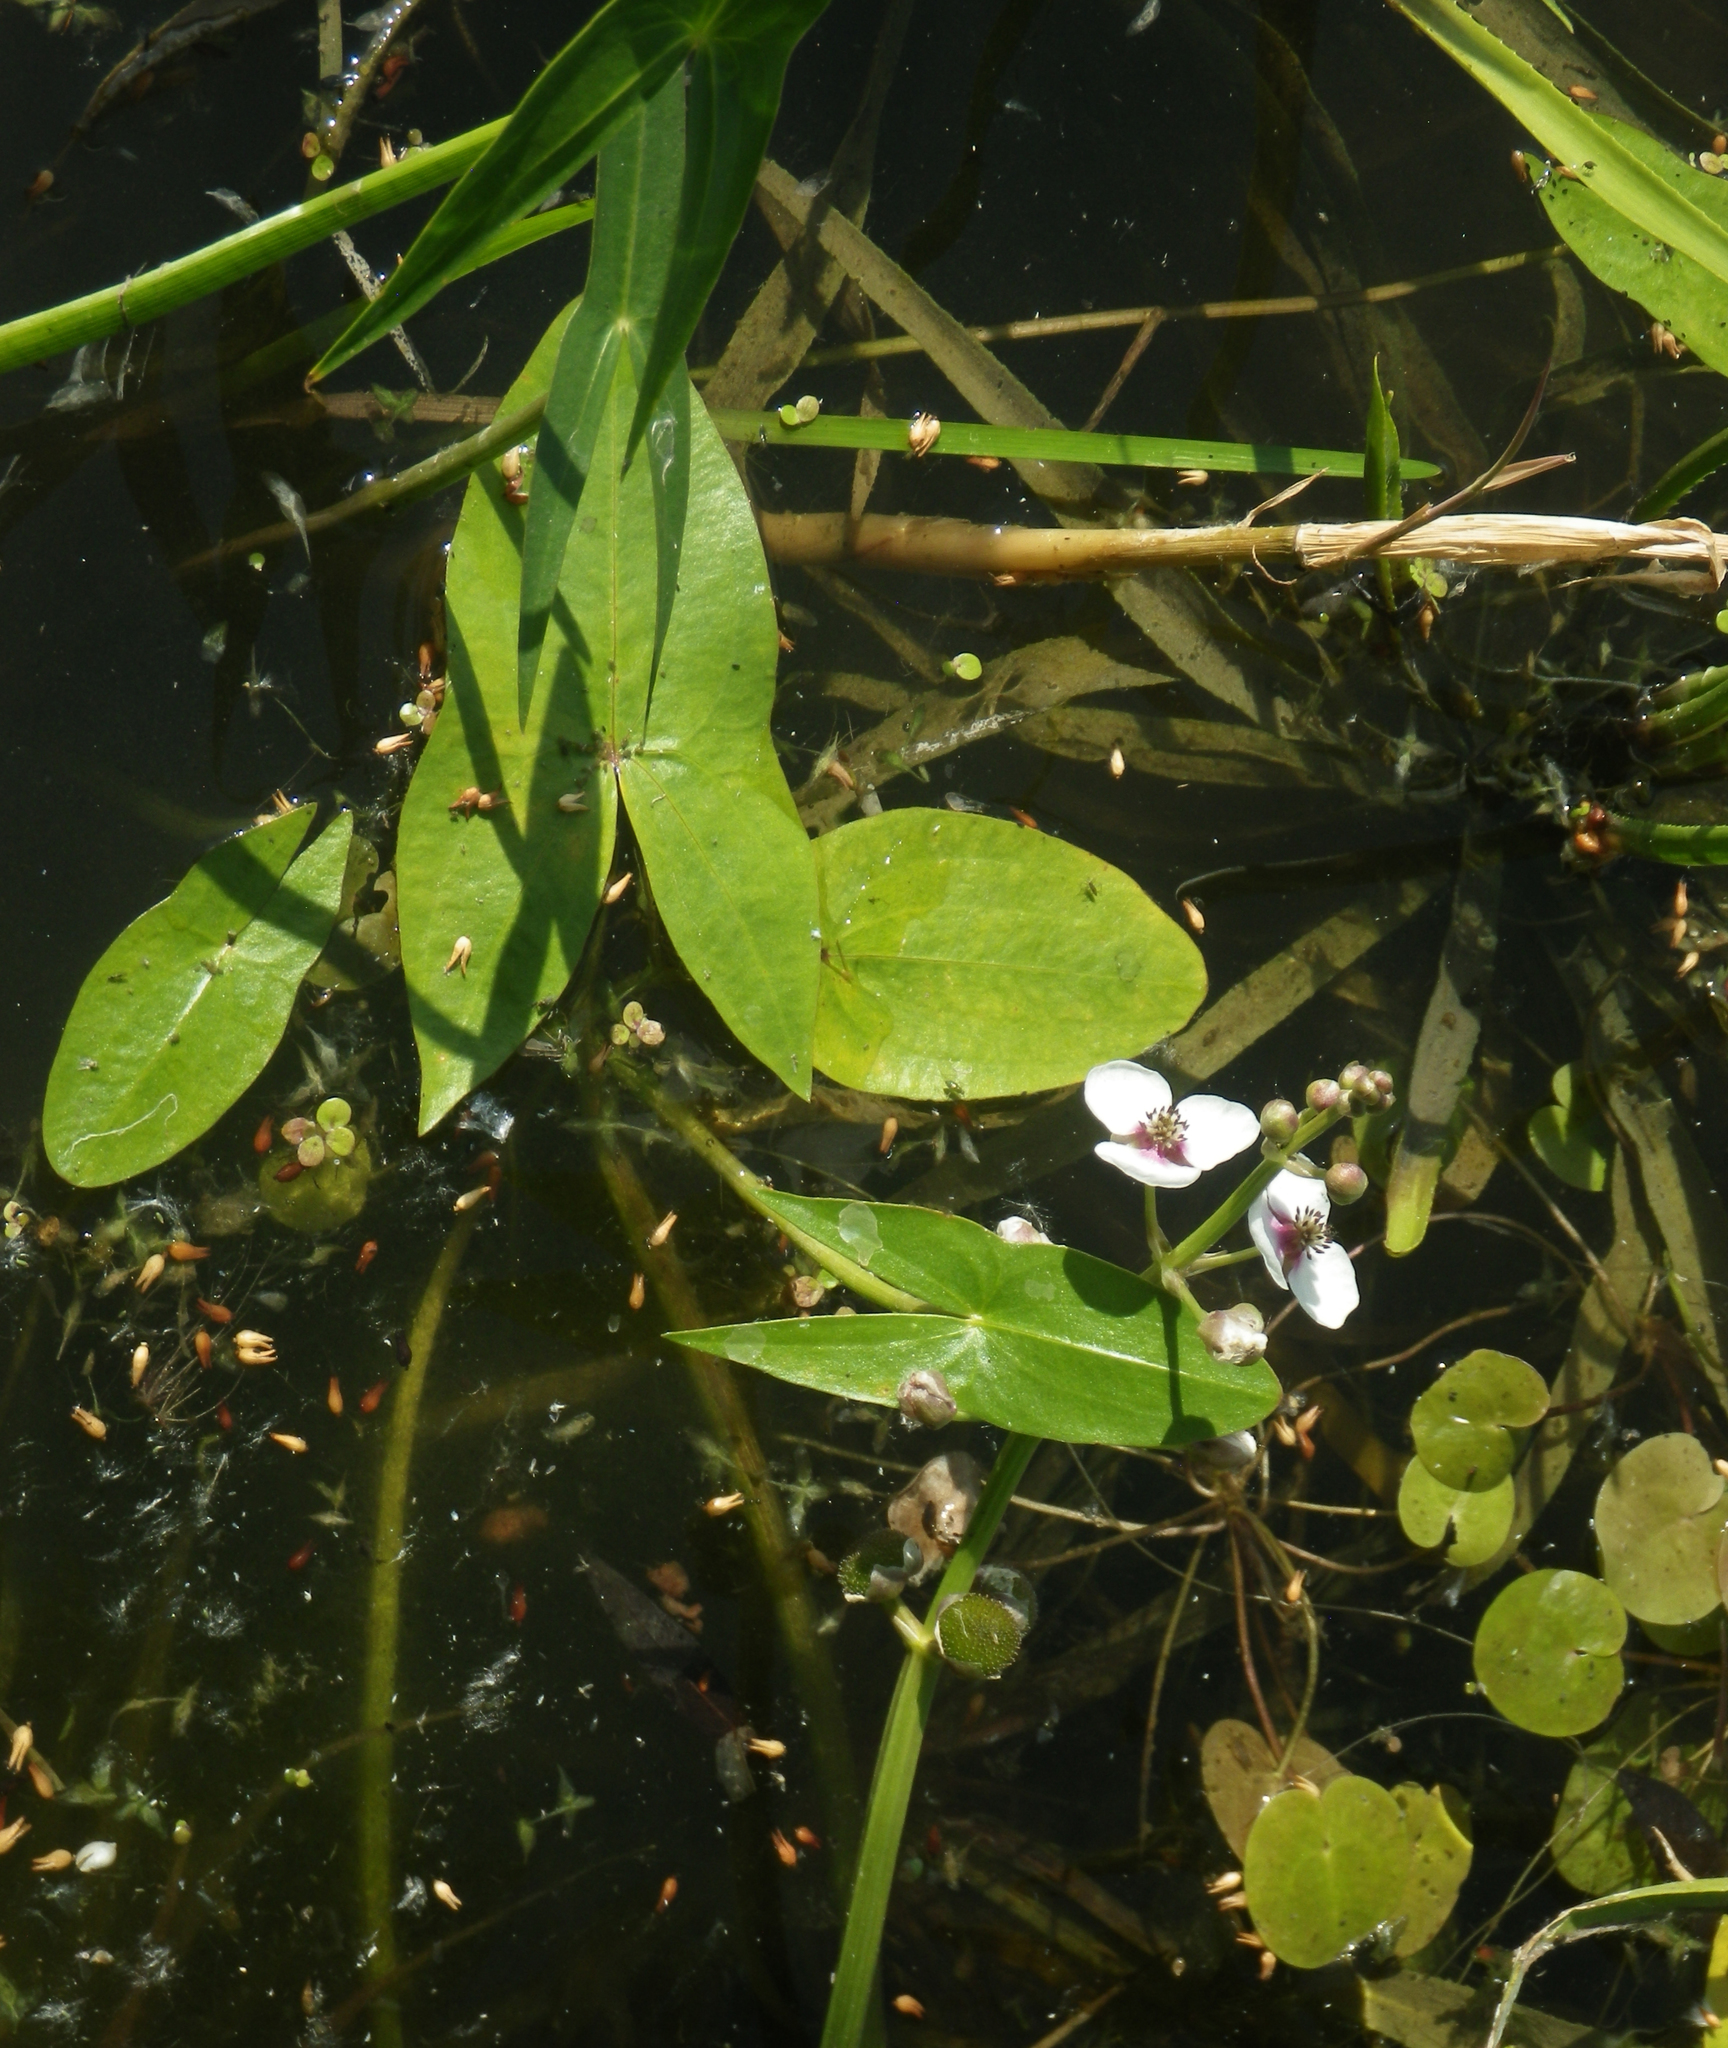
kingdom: Plantae
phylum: Tracheophyta
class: Liliopsida
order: Alismatales
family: Alismataceae
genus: Sagittaria
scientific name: Sagittaria sagittifolia
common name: Arrowhead
